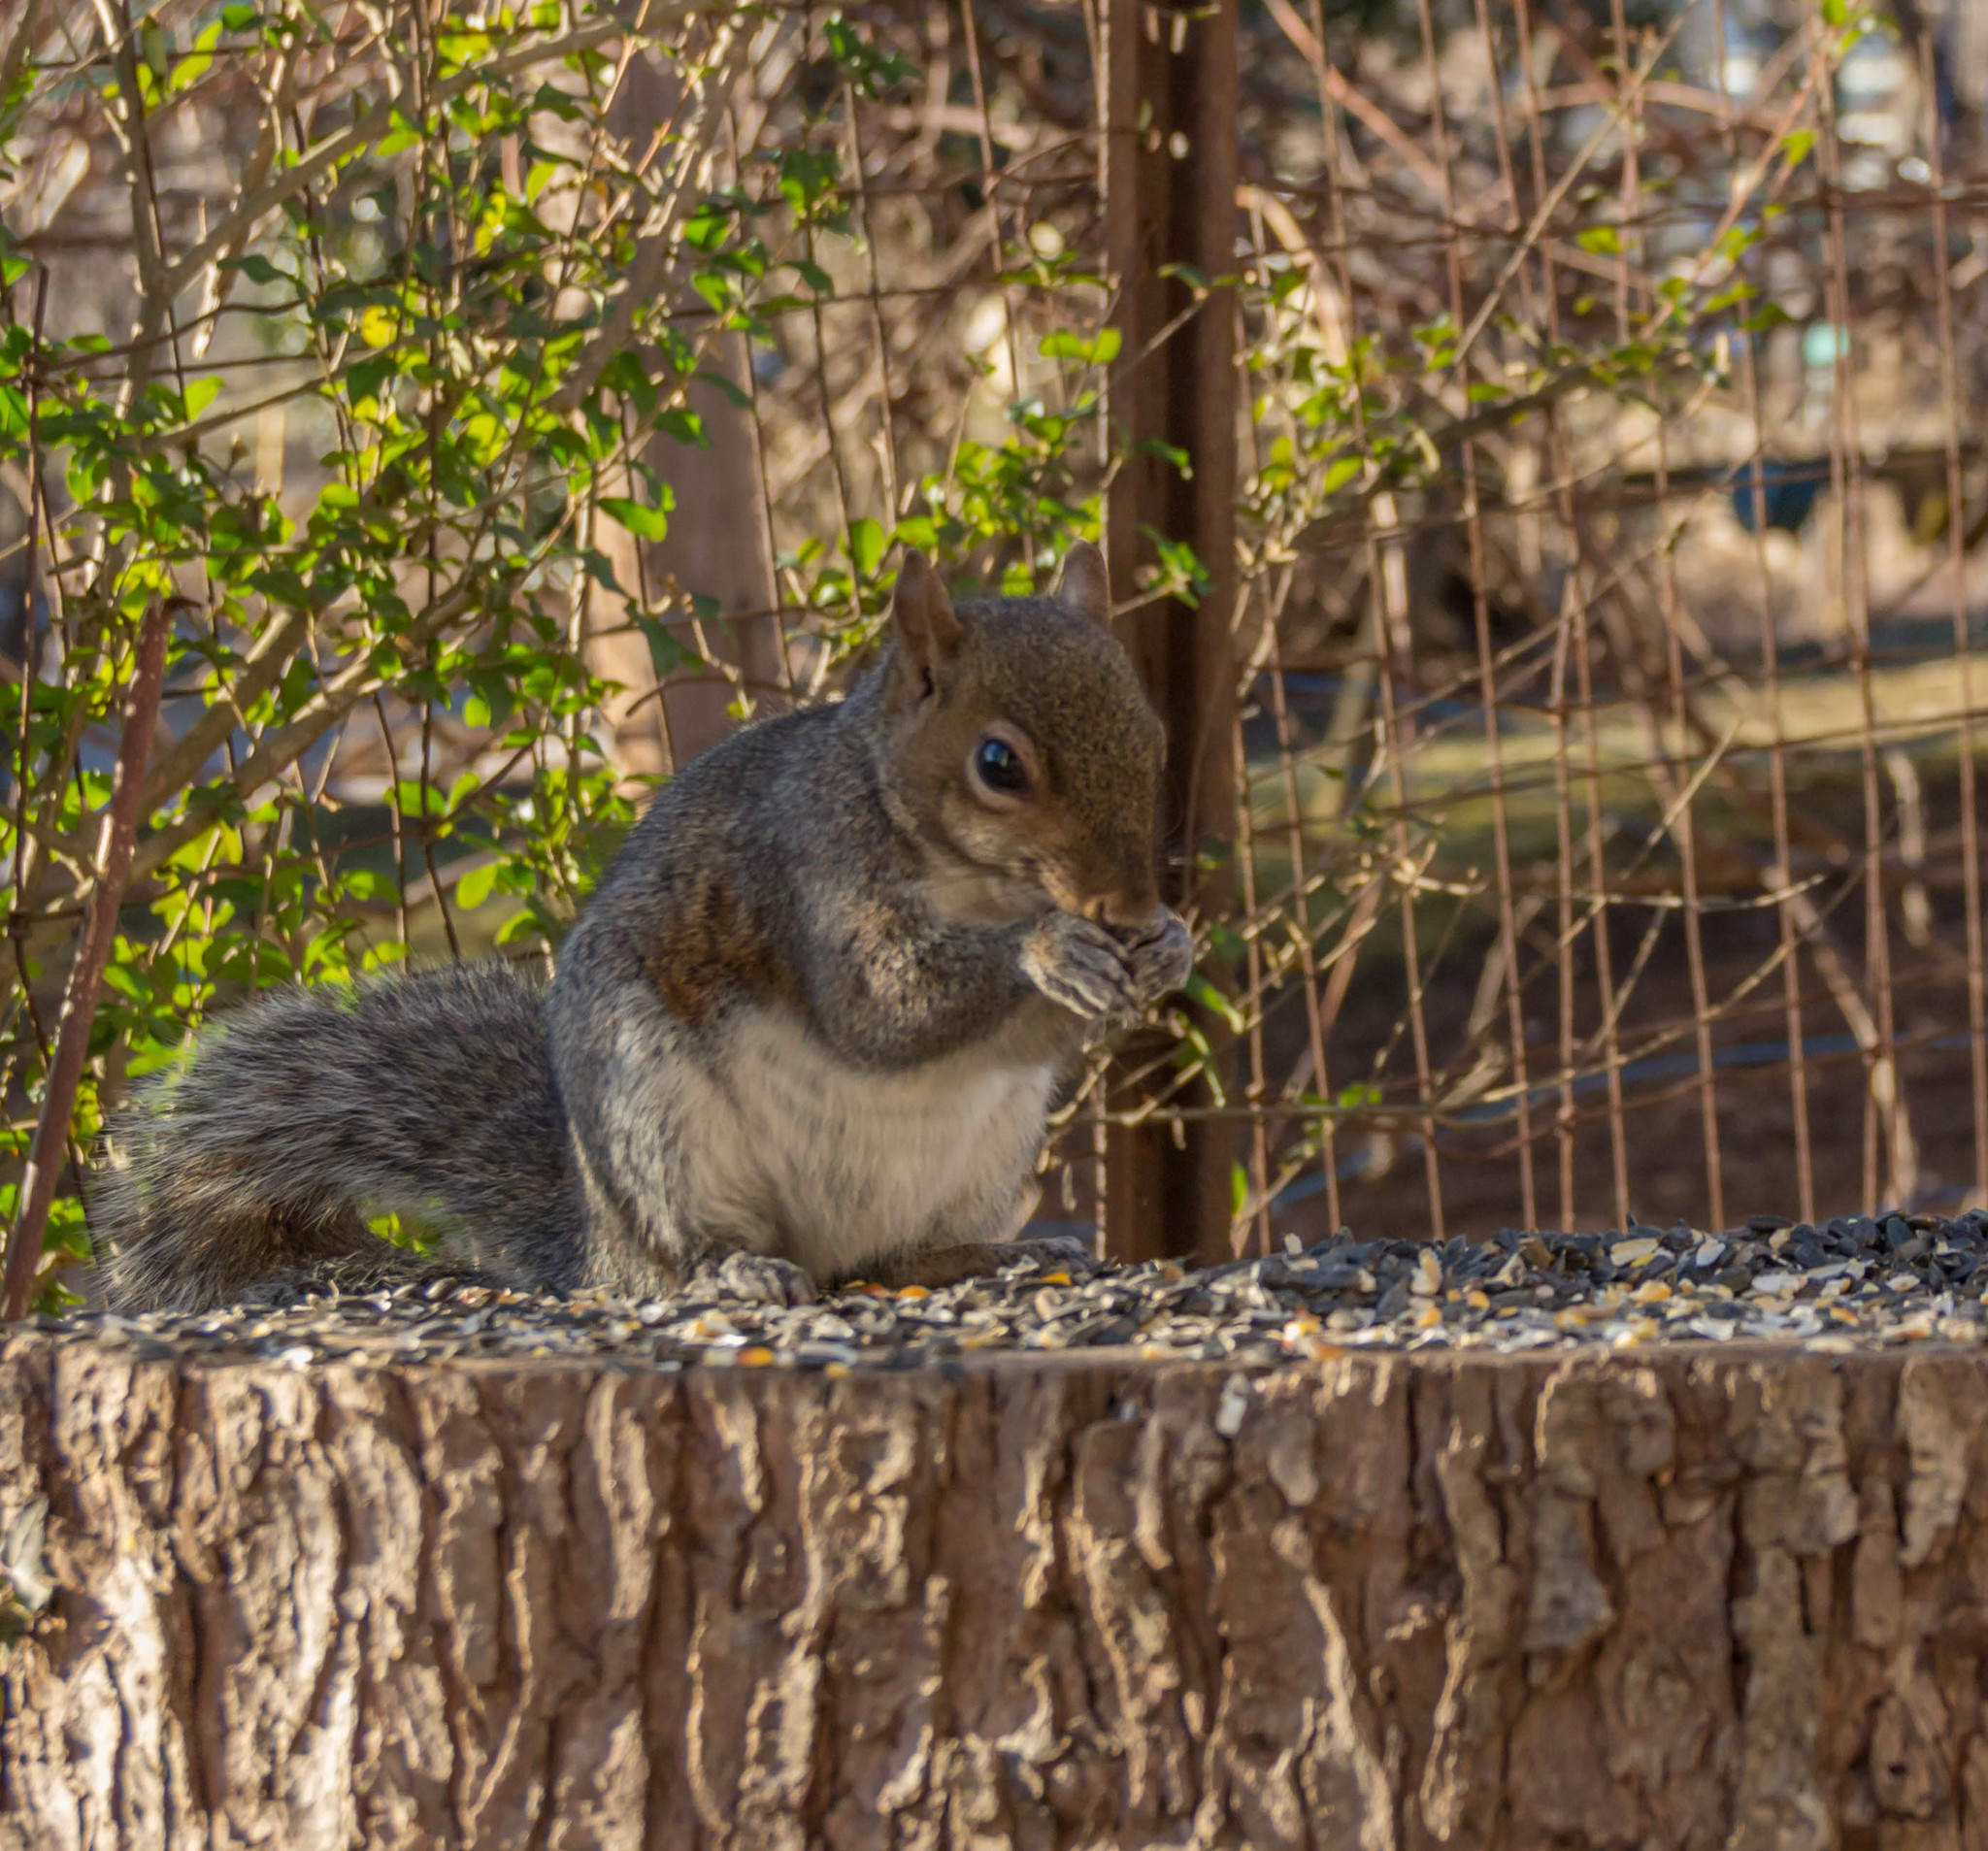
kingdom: Animalia
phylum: Chordata
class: Mammalia
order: Rodentia
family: Sciuridae
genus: Sciurus
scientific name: Sciurus carolinensis
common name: Eastern gray squirrel
